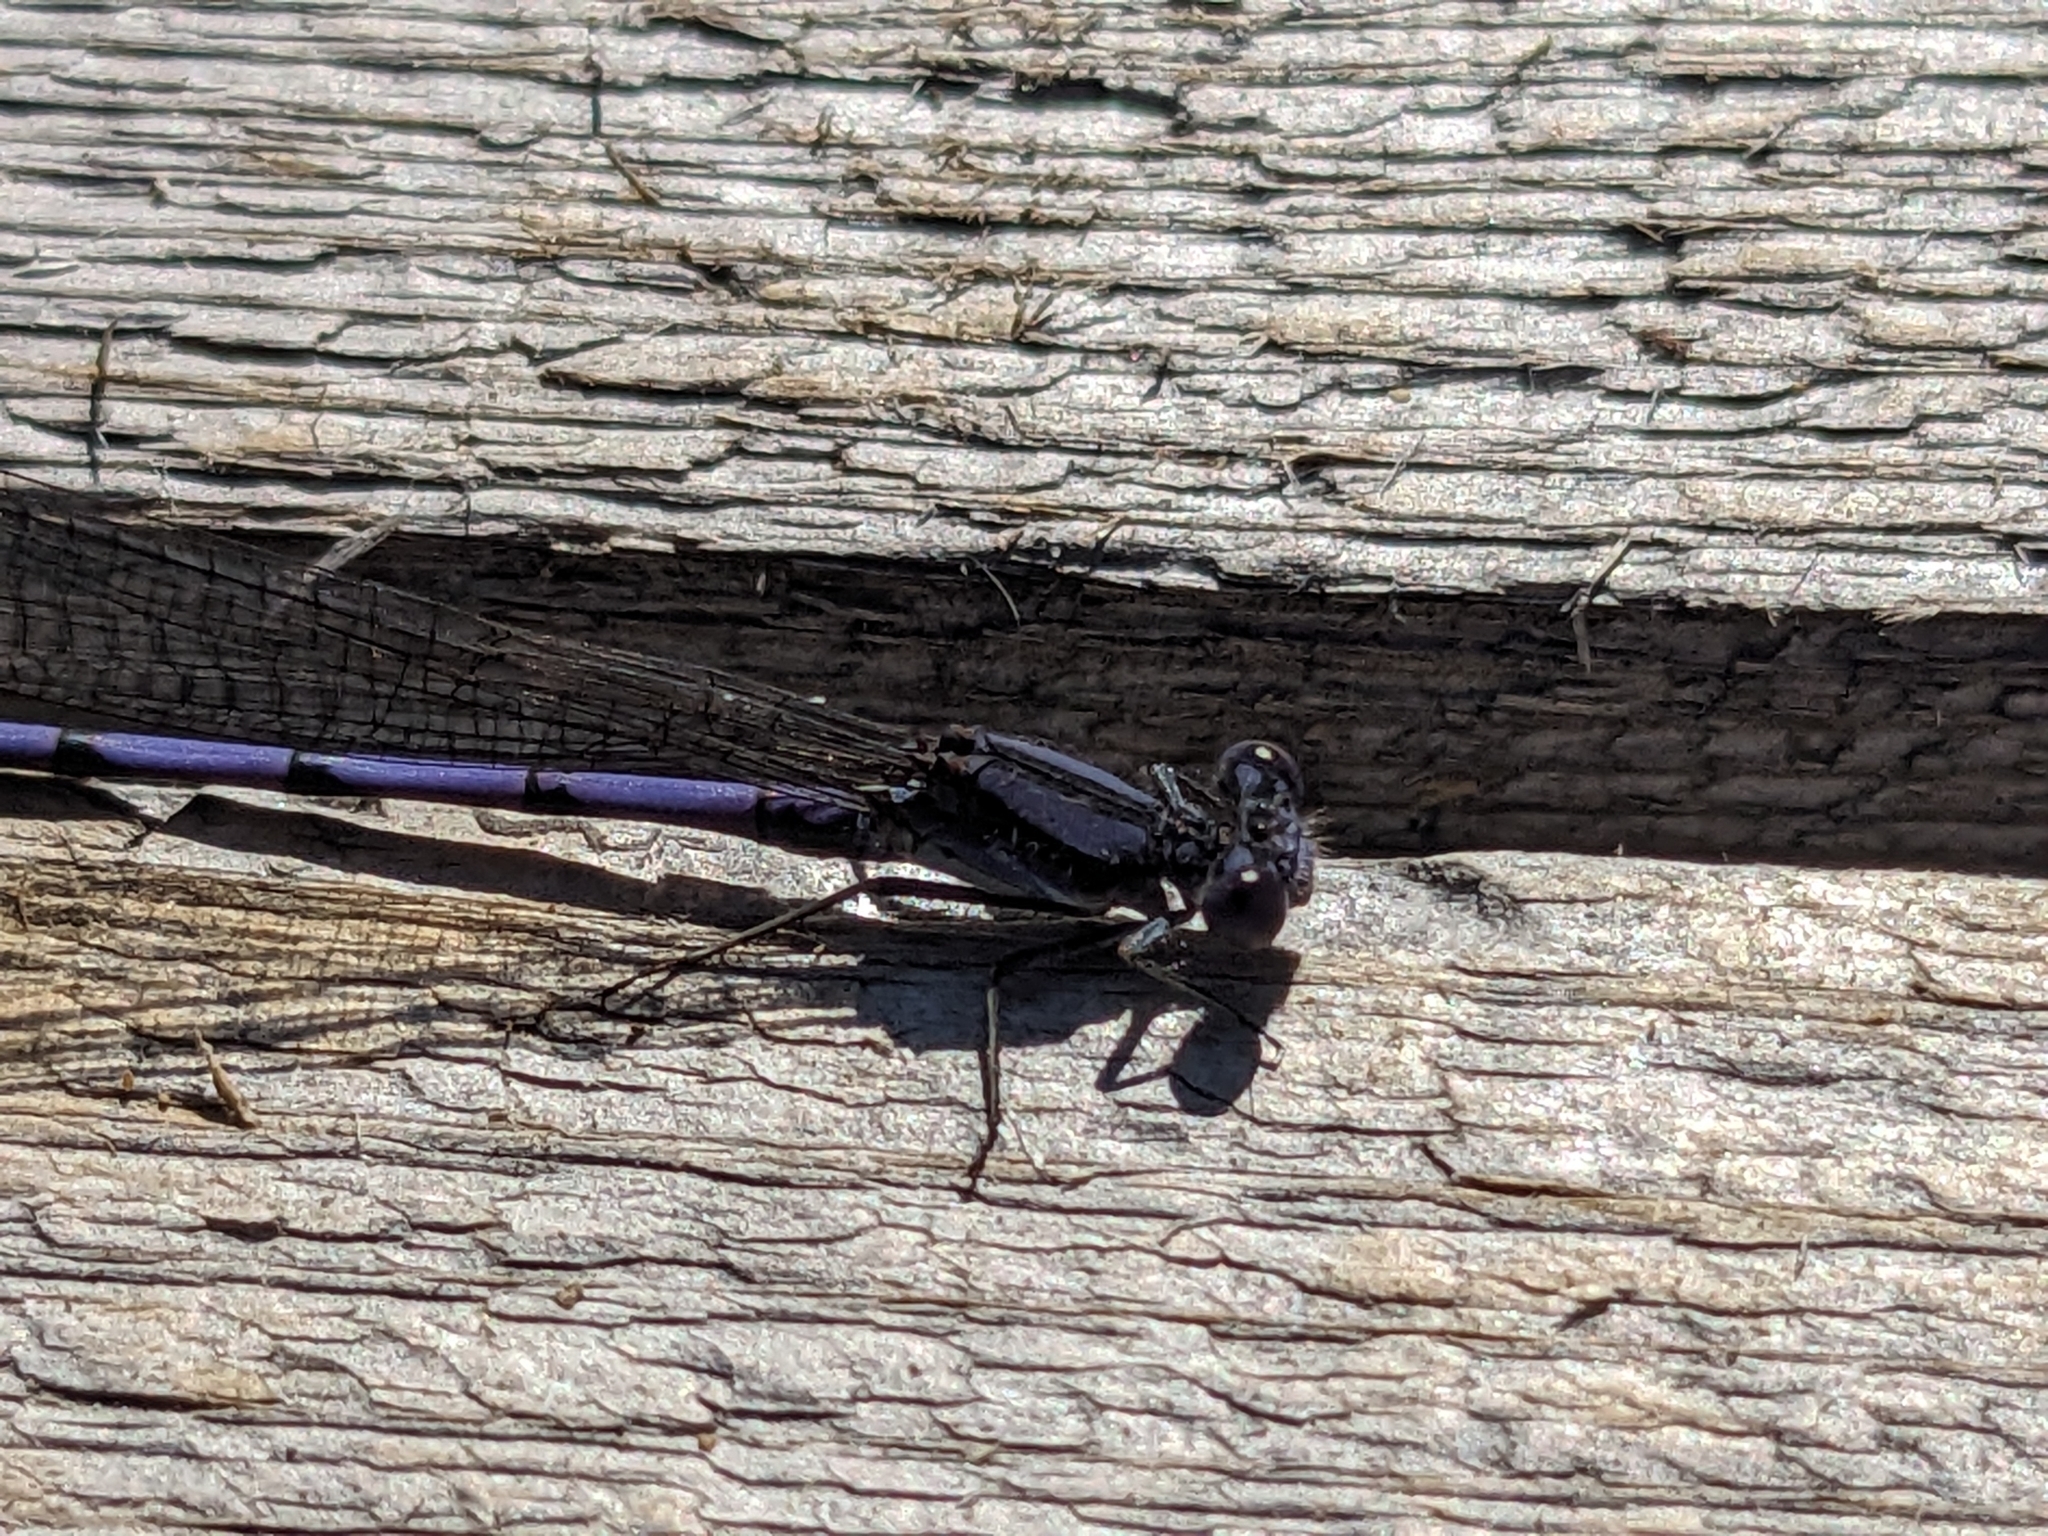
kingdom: Animalia
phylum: Arthropoda
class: Insecta
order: Odonata
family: Coenagrionidae
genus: Argia
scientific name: Argia fumipennis
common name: Variable dancer
